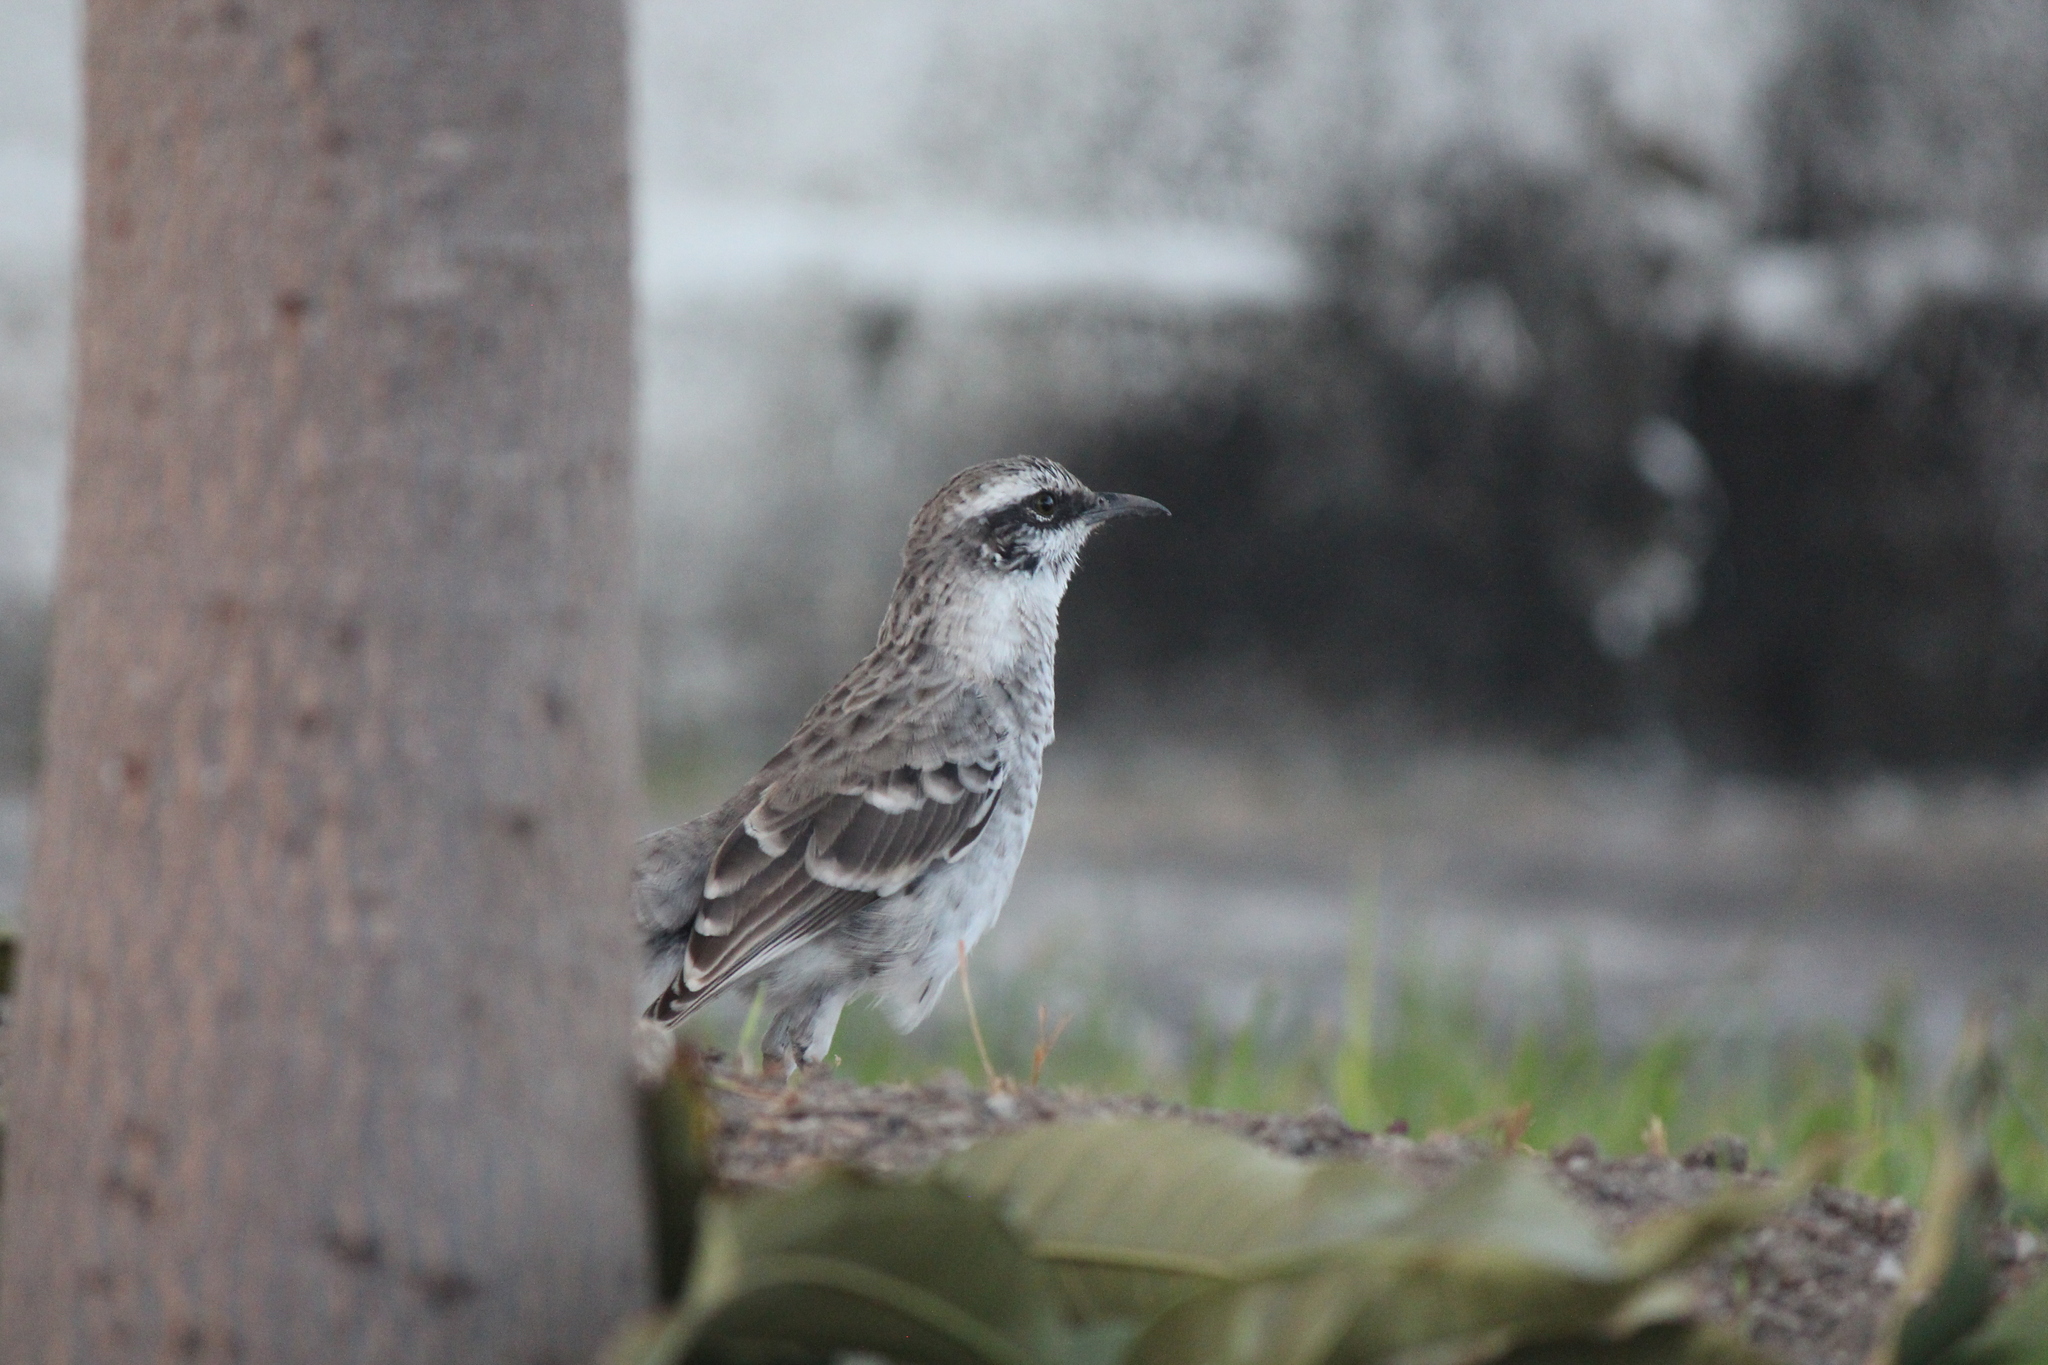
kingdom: Animalia
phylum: Chordata
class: Aves
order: Passeriformes
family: Mimidae
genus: Mimus
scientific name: Mimus longicaudatus
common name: Long-tailed mockingbird
